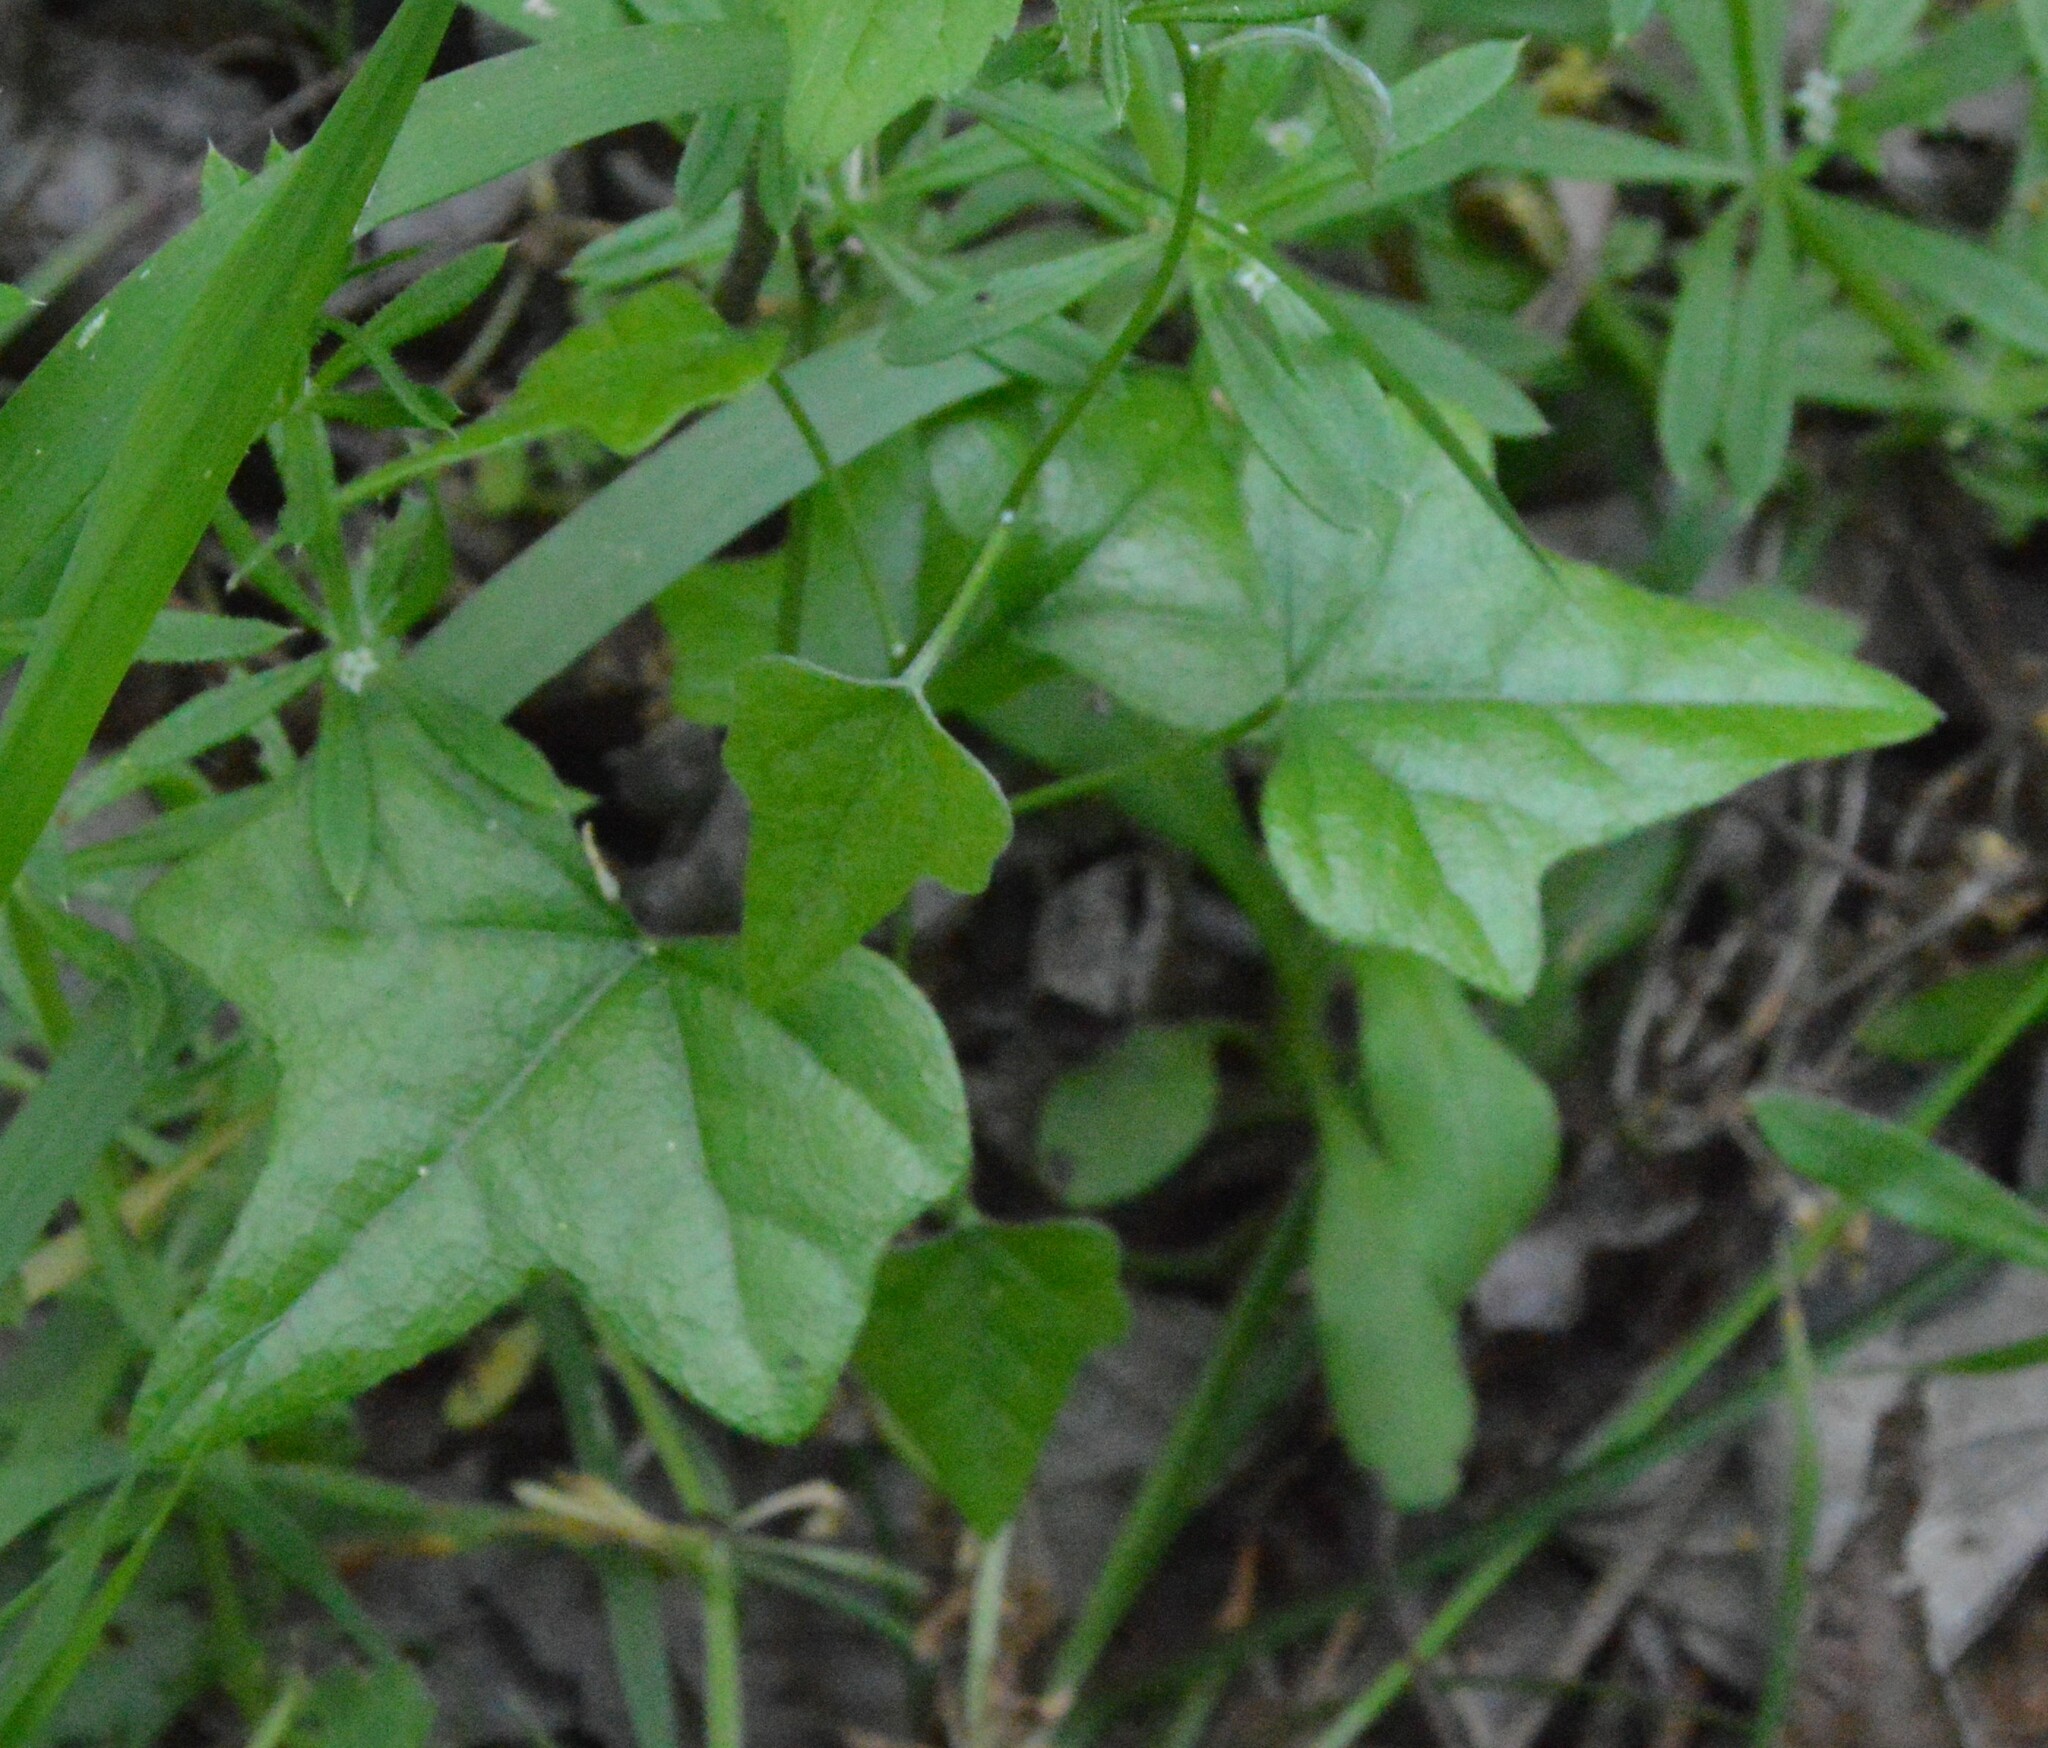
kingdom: Plantae
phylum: Tracheophyta
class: Magnoliopsida
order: Ranunculales
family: Menispermaceae
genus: Cocculus
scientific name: Cocculus carolinus
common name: Carolina moonseed
